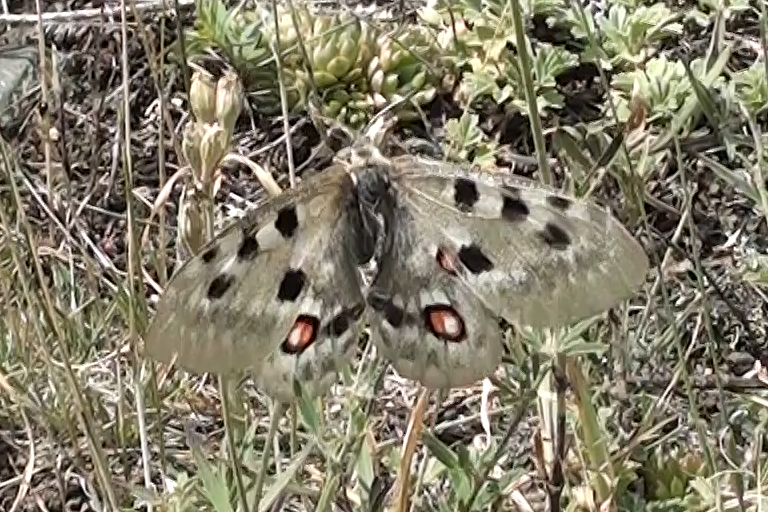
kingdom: Animalia
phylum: Arthropoda
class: Insecta
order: Lepidoptera
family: Papilionidae
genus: Parnassius
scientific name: Parnassius apollo
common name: Apollo
